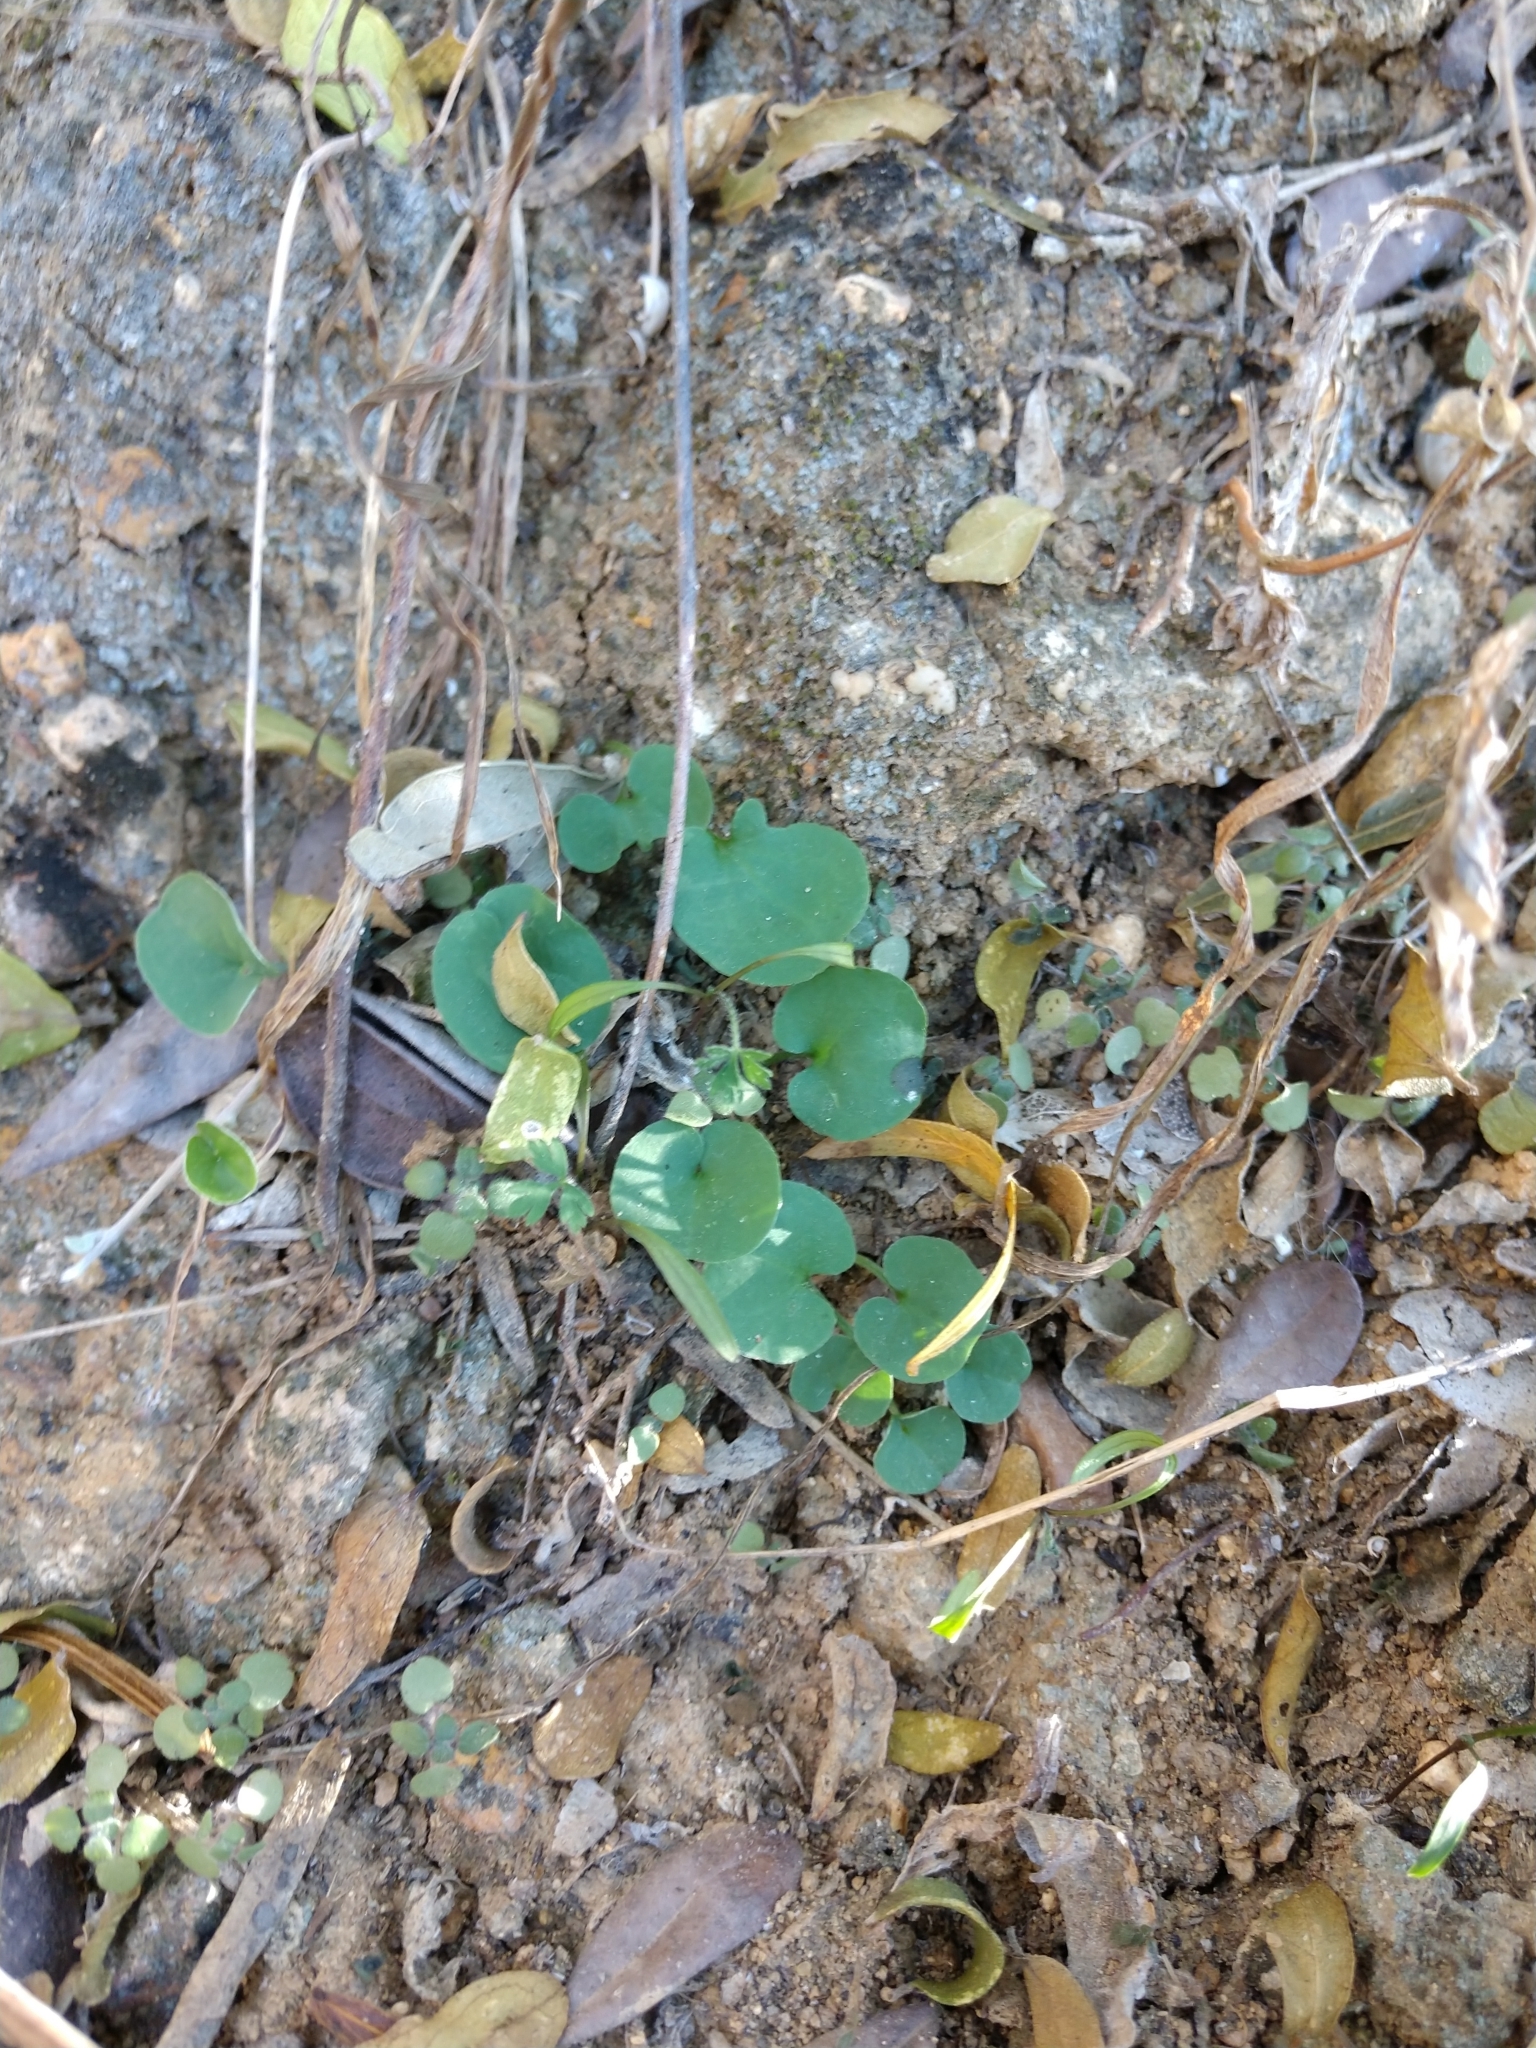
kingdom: Plantae
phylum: Tracheophyta
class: Magnoliopsida
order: Solanales
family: Convolvulaceae
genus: Dichondra
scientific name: Dichondra carolinensis
